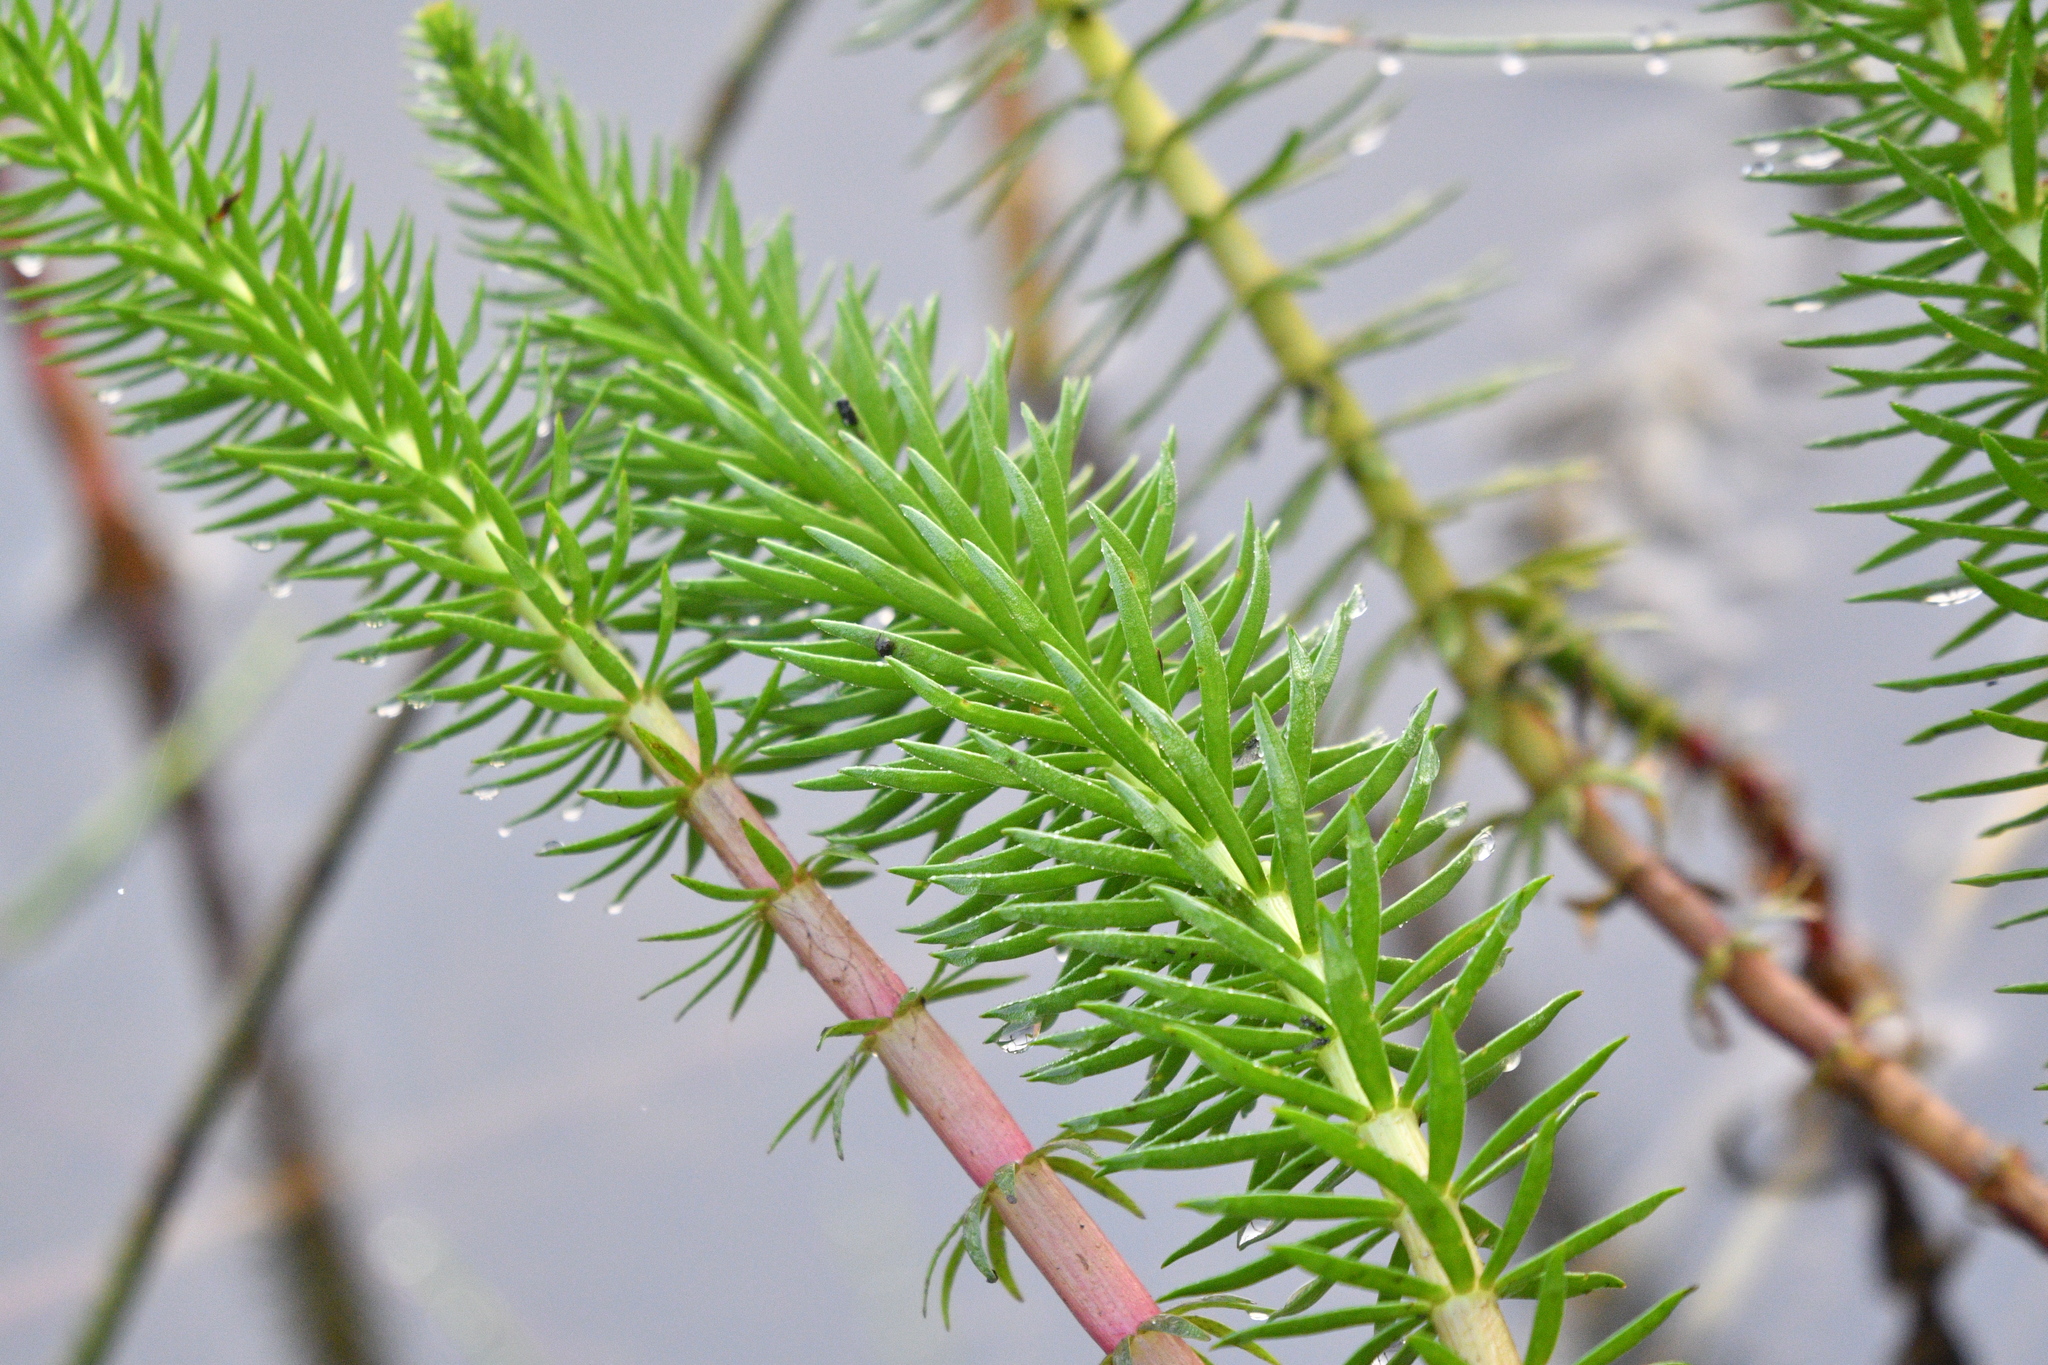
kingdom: Plantae
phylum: Tracheophyta
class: Magnoliopsida
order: Lamiales
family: Plantaginaceae
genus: Hippuris
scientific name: Hippuris vulgaris
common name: Mare's-tail
